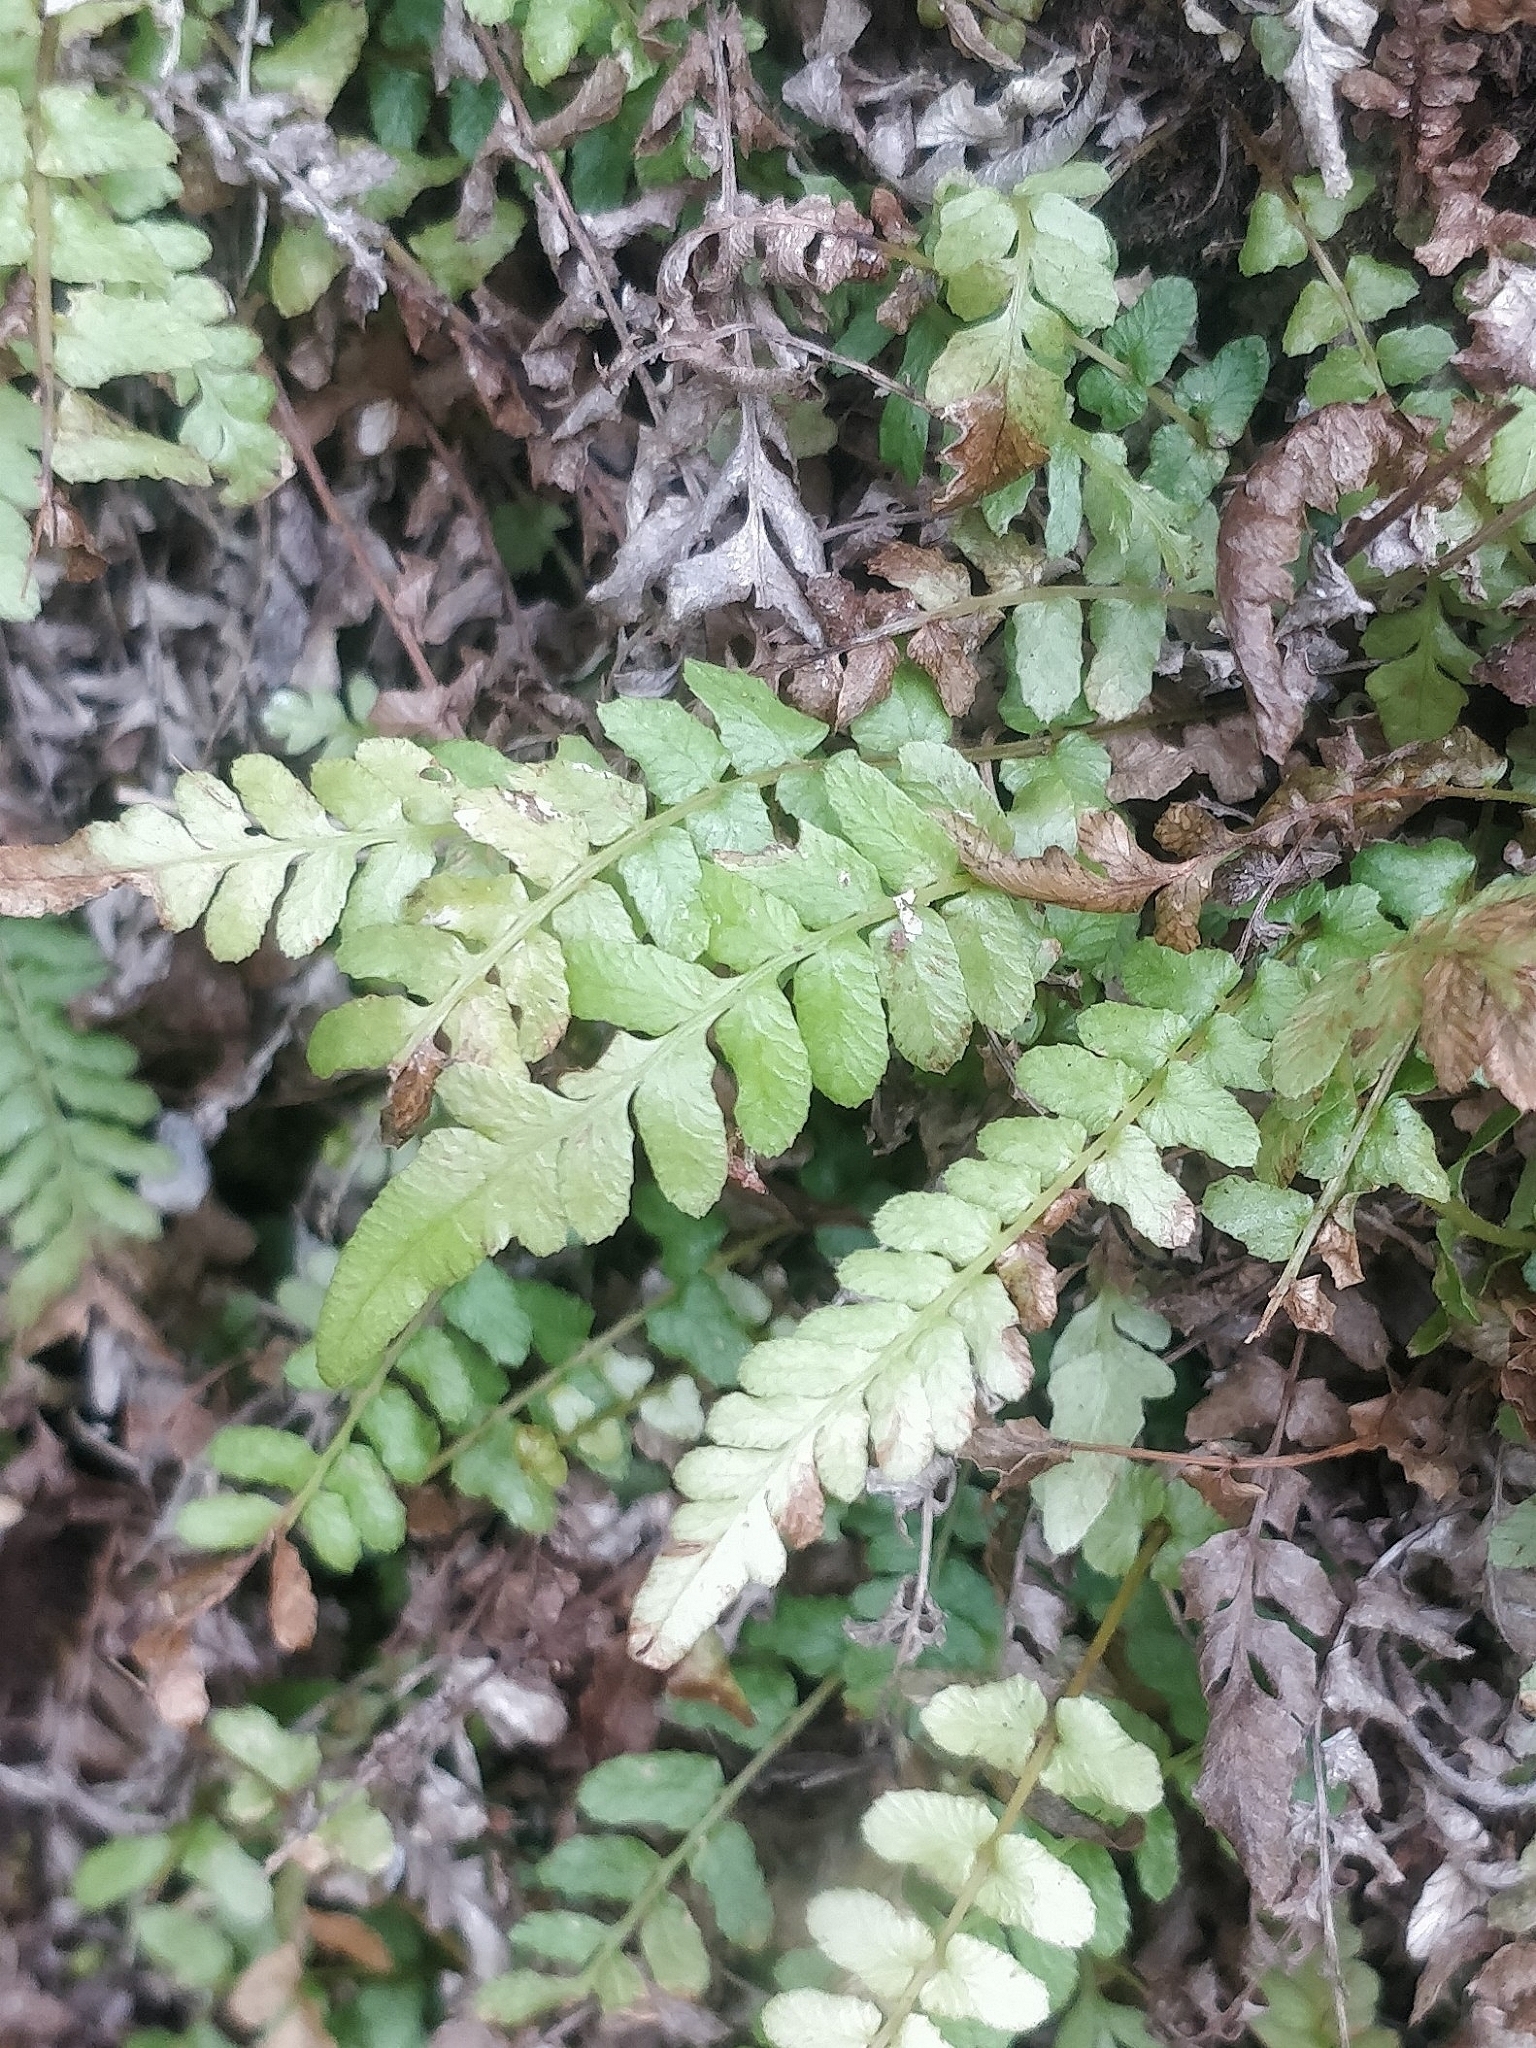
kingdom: Plantae
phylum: Tracheophyta
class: Polypodiopsida
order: Polypodiales
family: Aspleniaceae
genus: Asplenium
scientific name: Asplenium marinum
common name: Sea spleenwort
